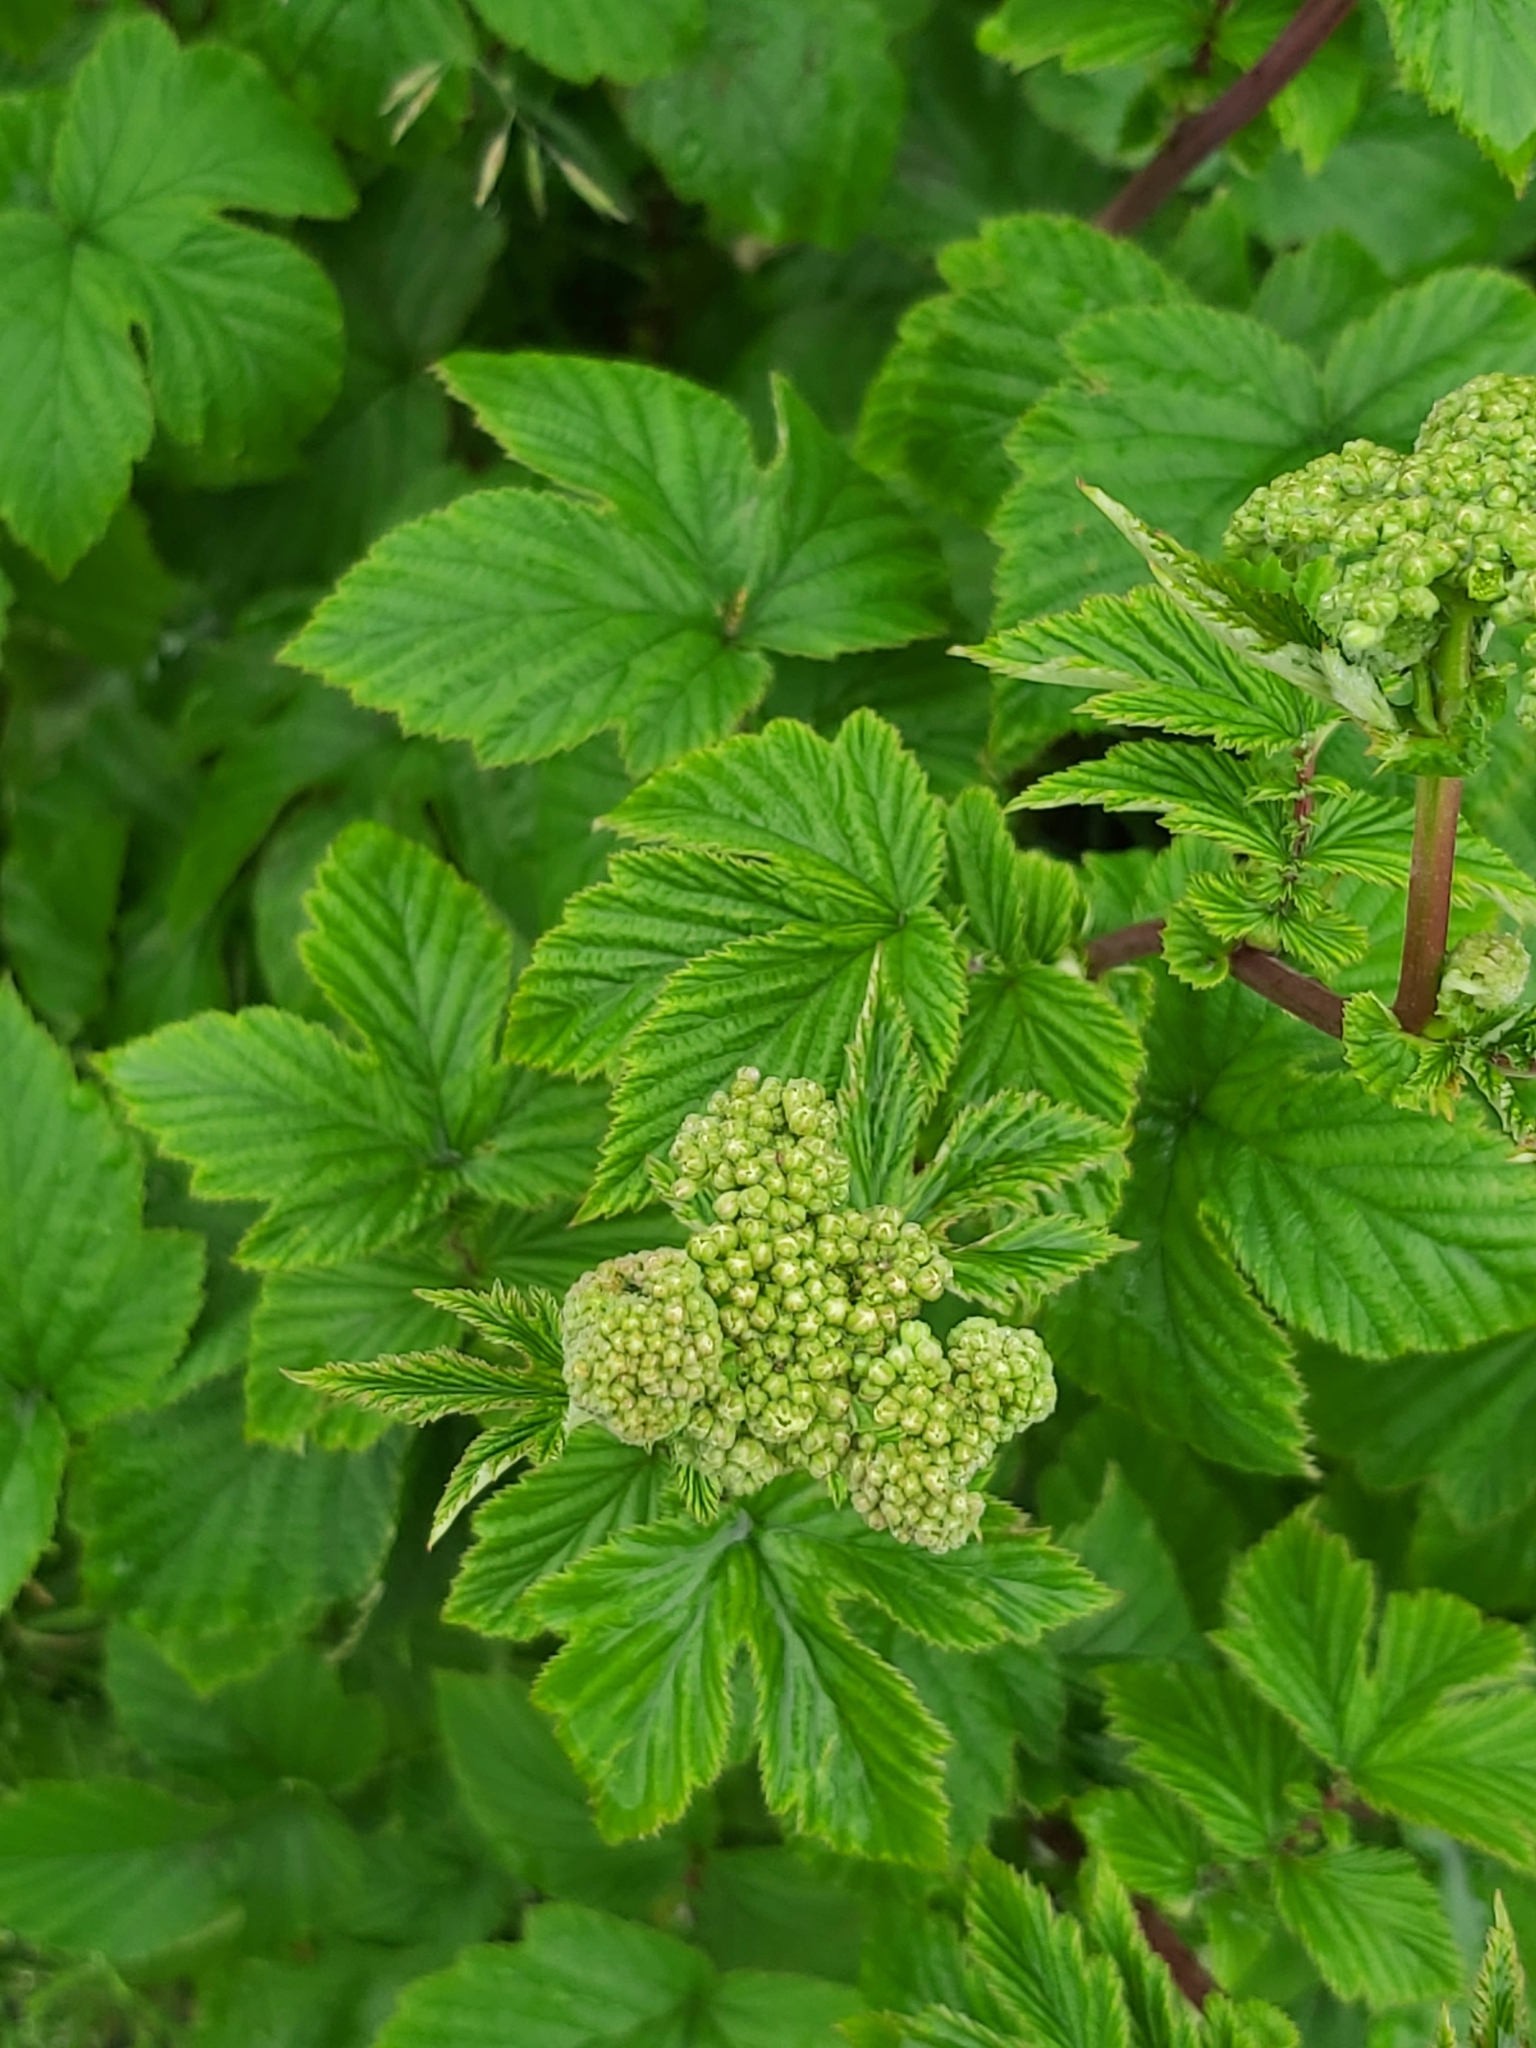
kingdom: Plantae
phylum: Tracheophyta
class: Magnoliopsida
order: Rosales
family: Rosaceae
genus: Filipendula
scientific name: Filipendula ulmaria
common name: Meadowsweet
